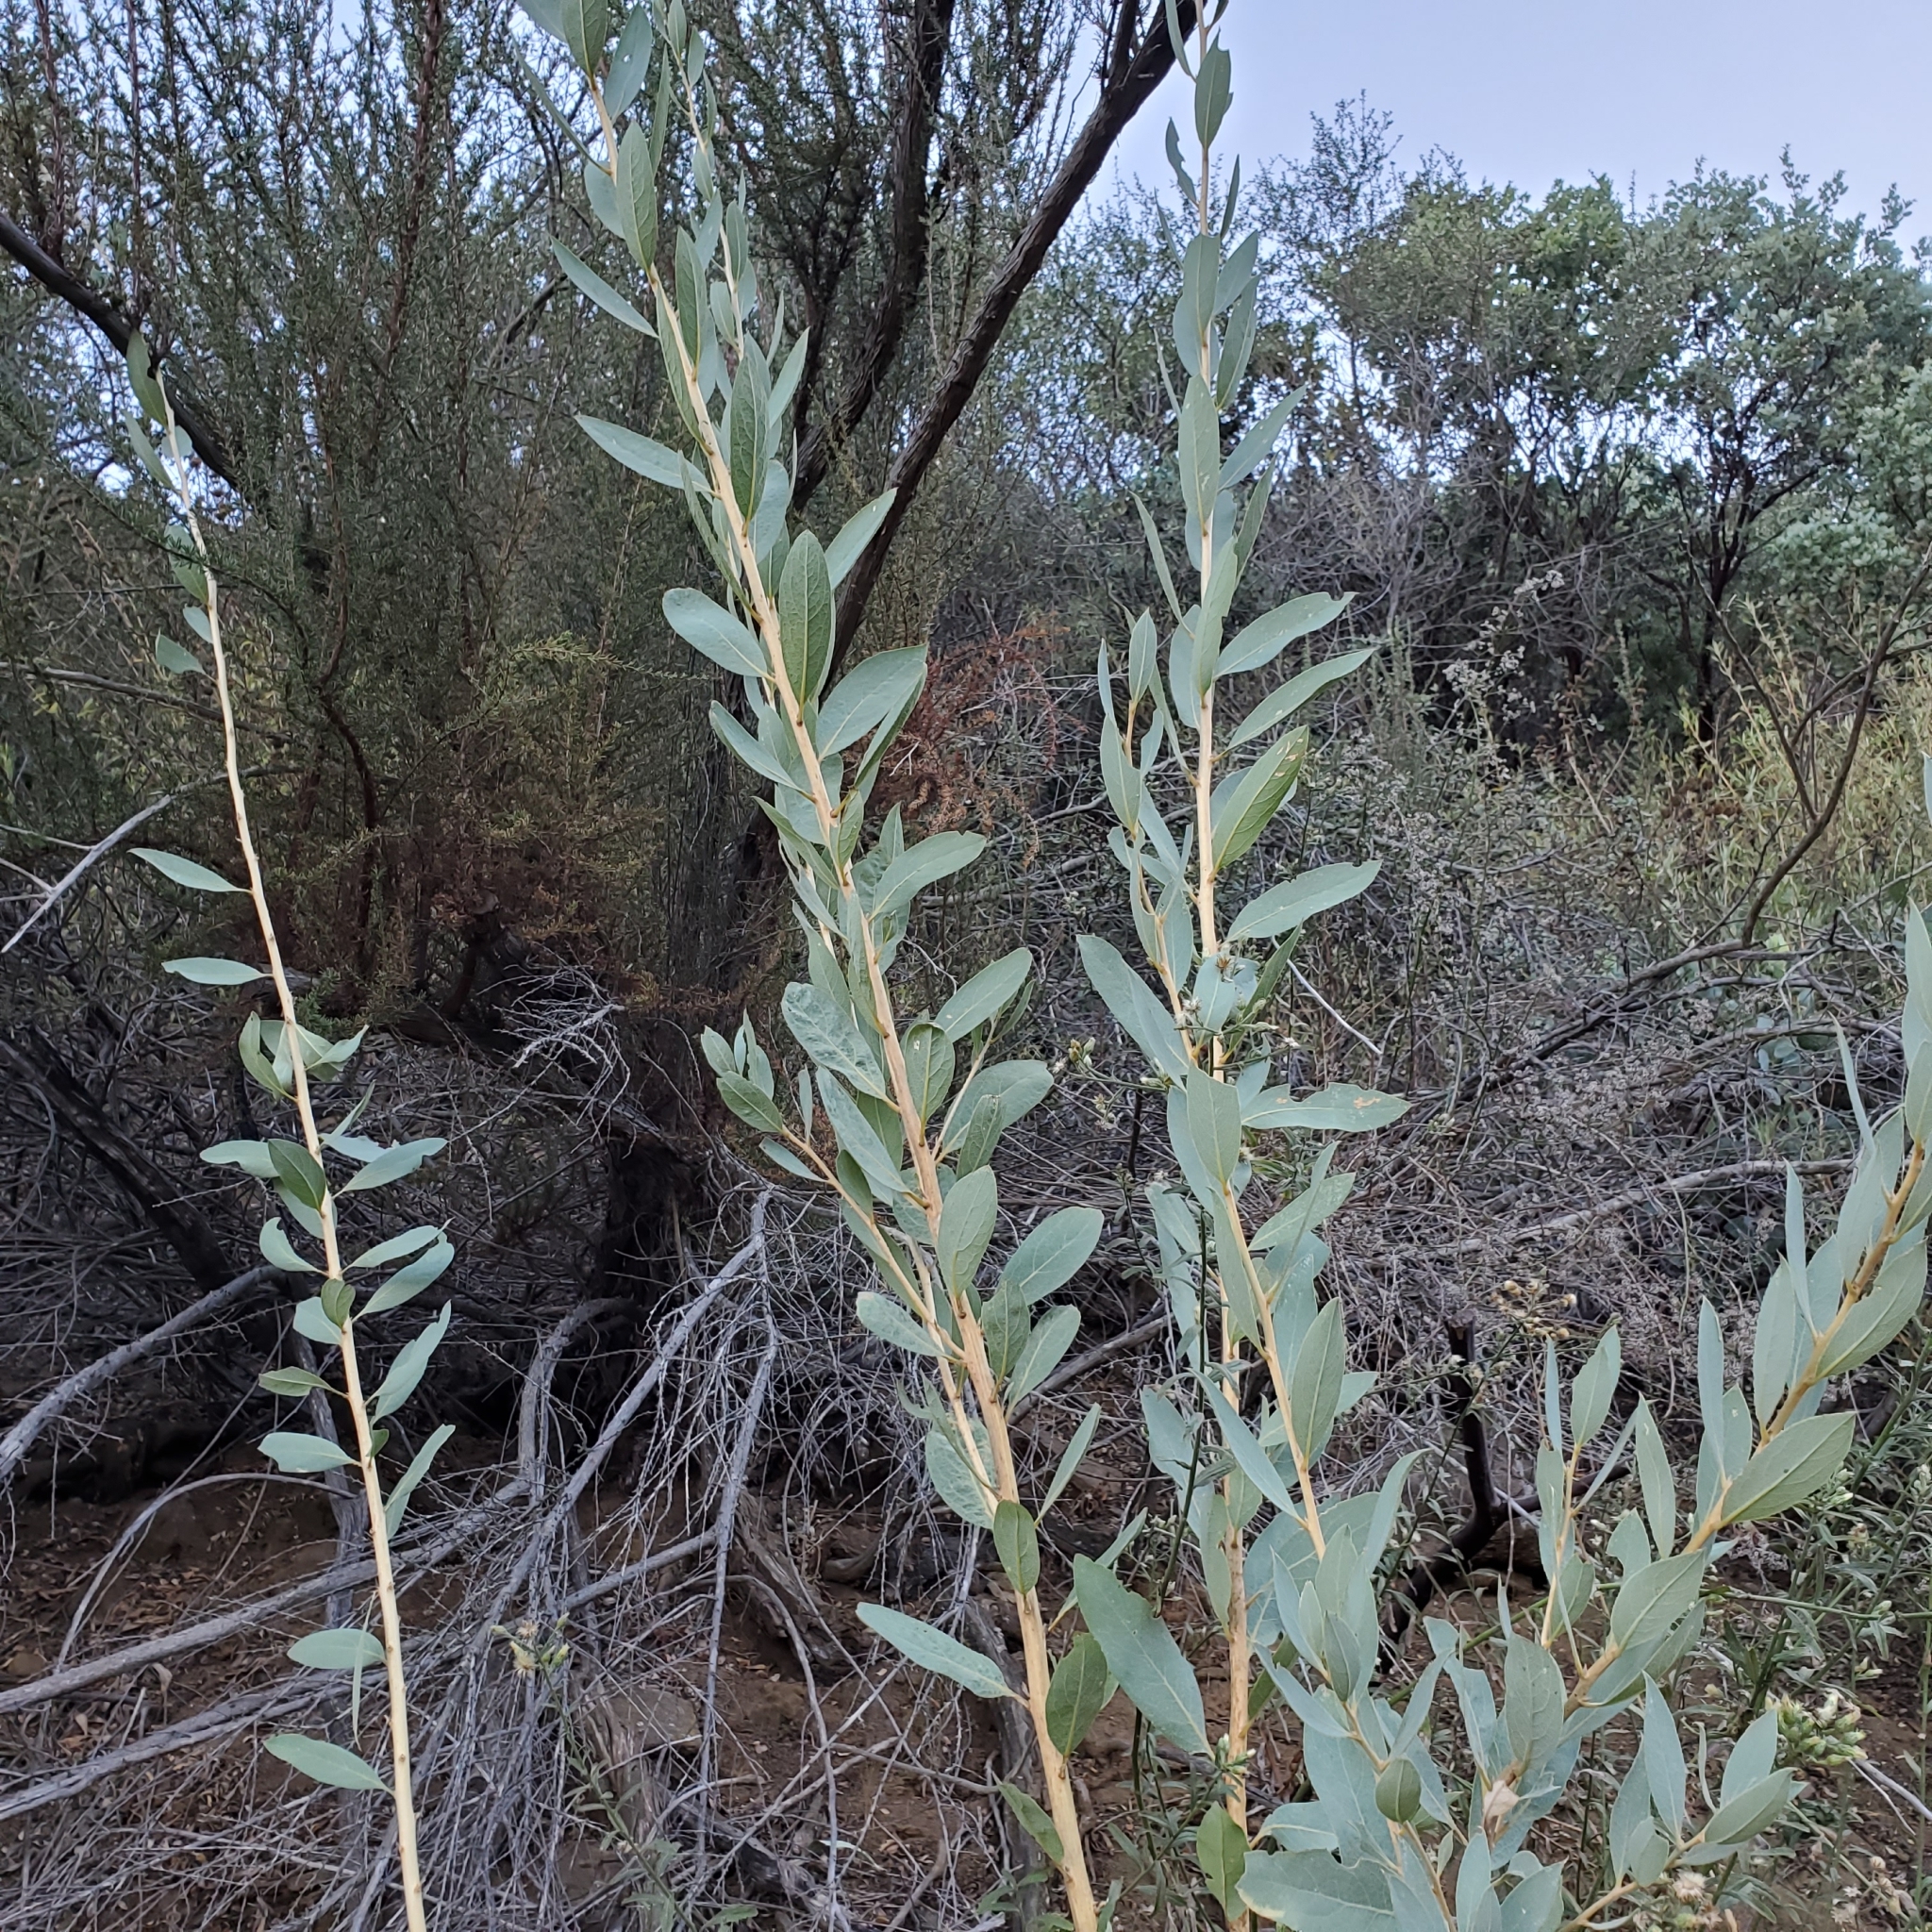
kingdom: Plantae
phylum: Tracheophyta
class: Magnoliopsida
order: Ranunculales
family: Papaveraceae
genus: Dendromecon
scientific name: Dendromecon rigida
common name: Tree poppy
